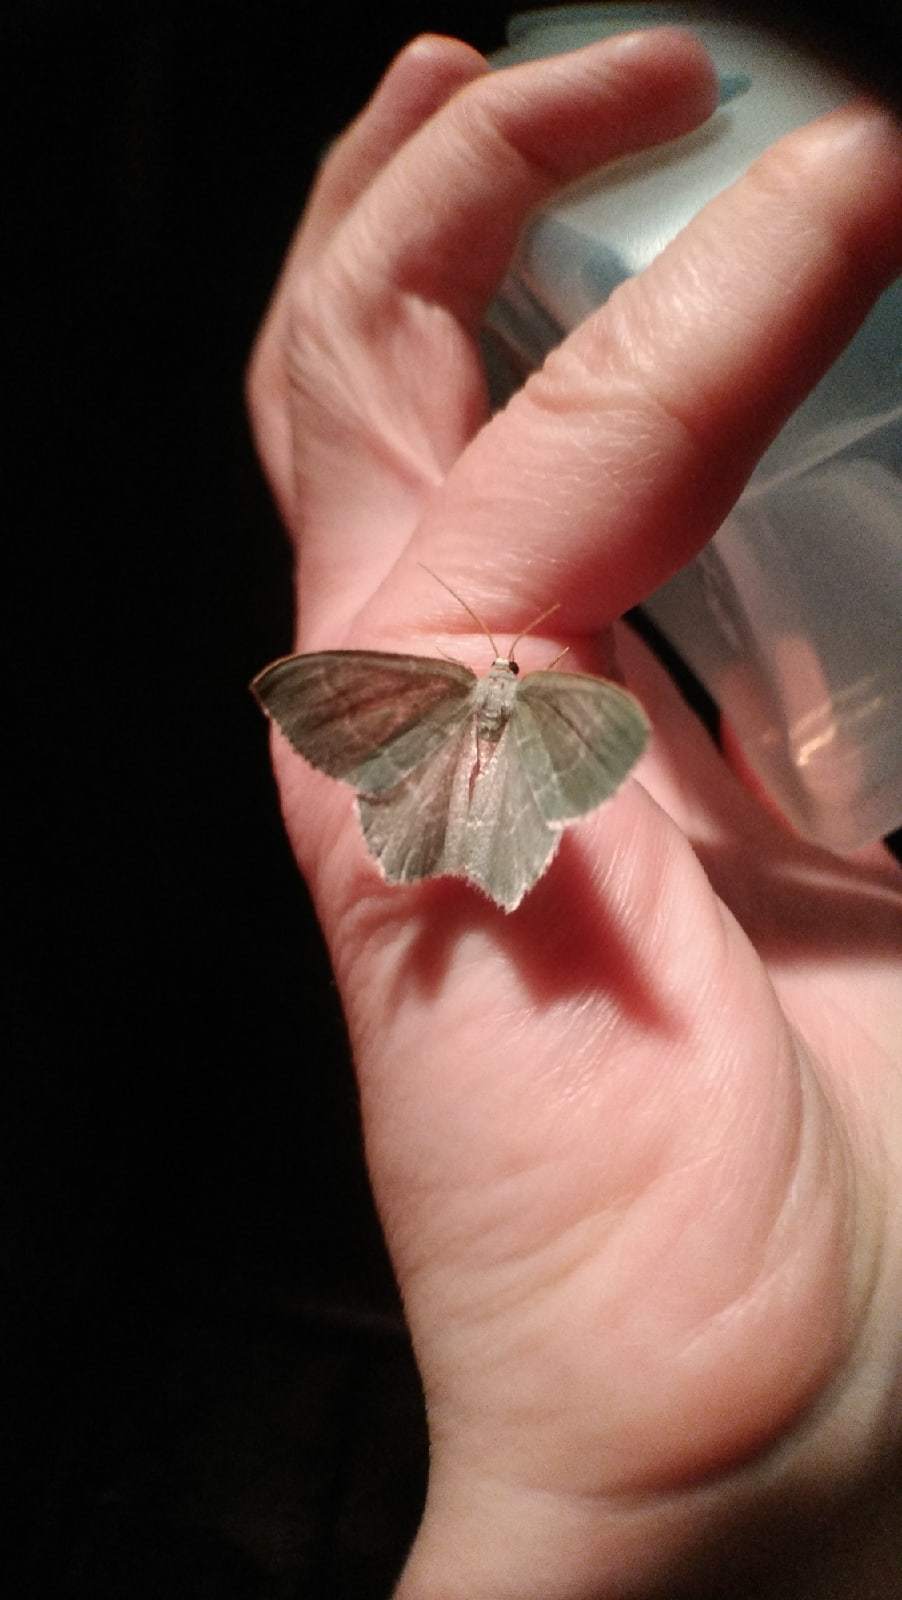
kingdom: Animalia
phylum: Arthropoda
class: Insecta
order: Lepidoptera
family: Geometridae
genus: Hemithea
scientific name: Hemithea aestivaria
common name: Common emerald
